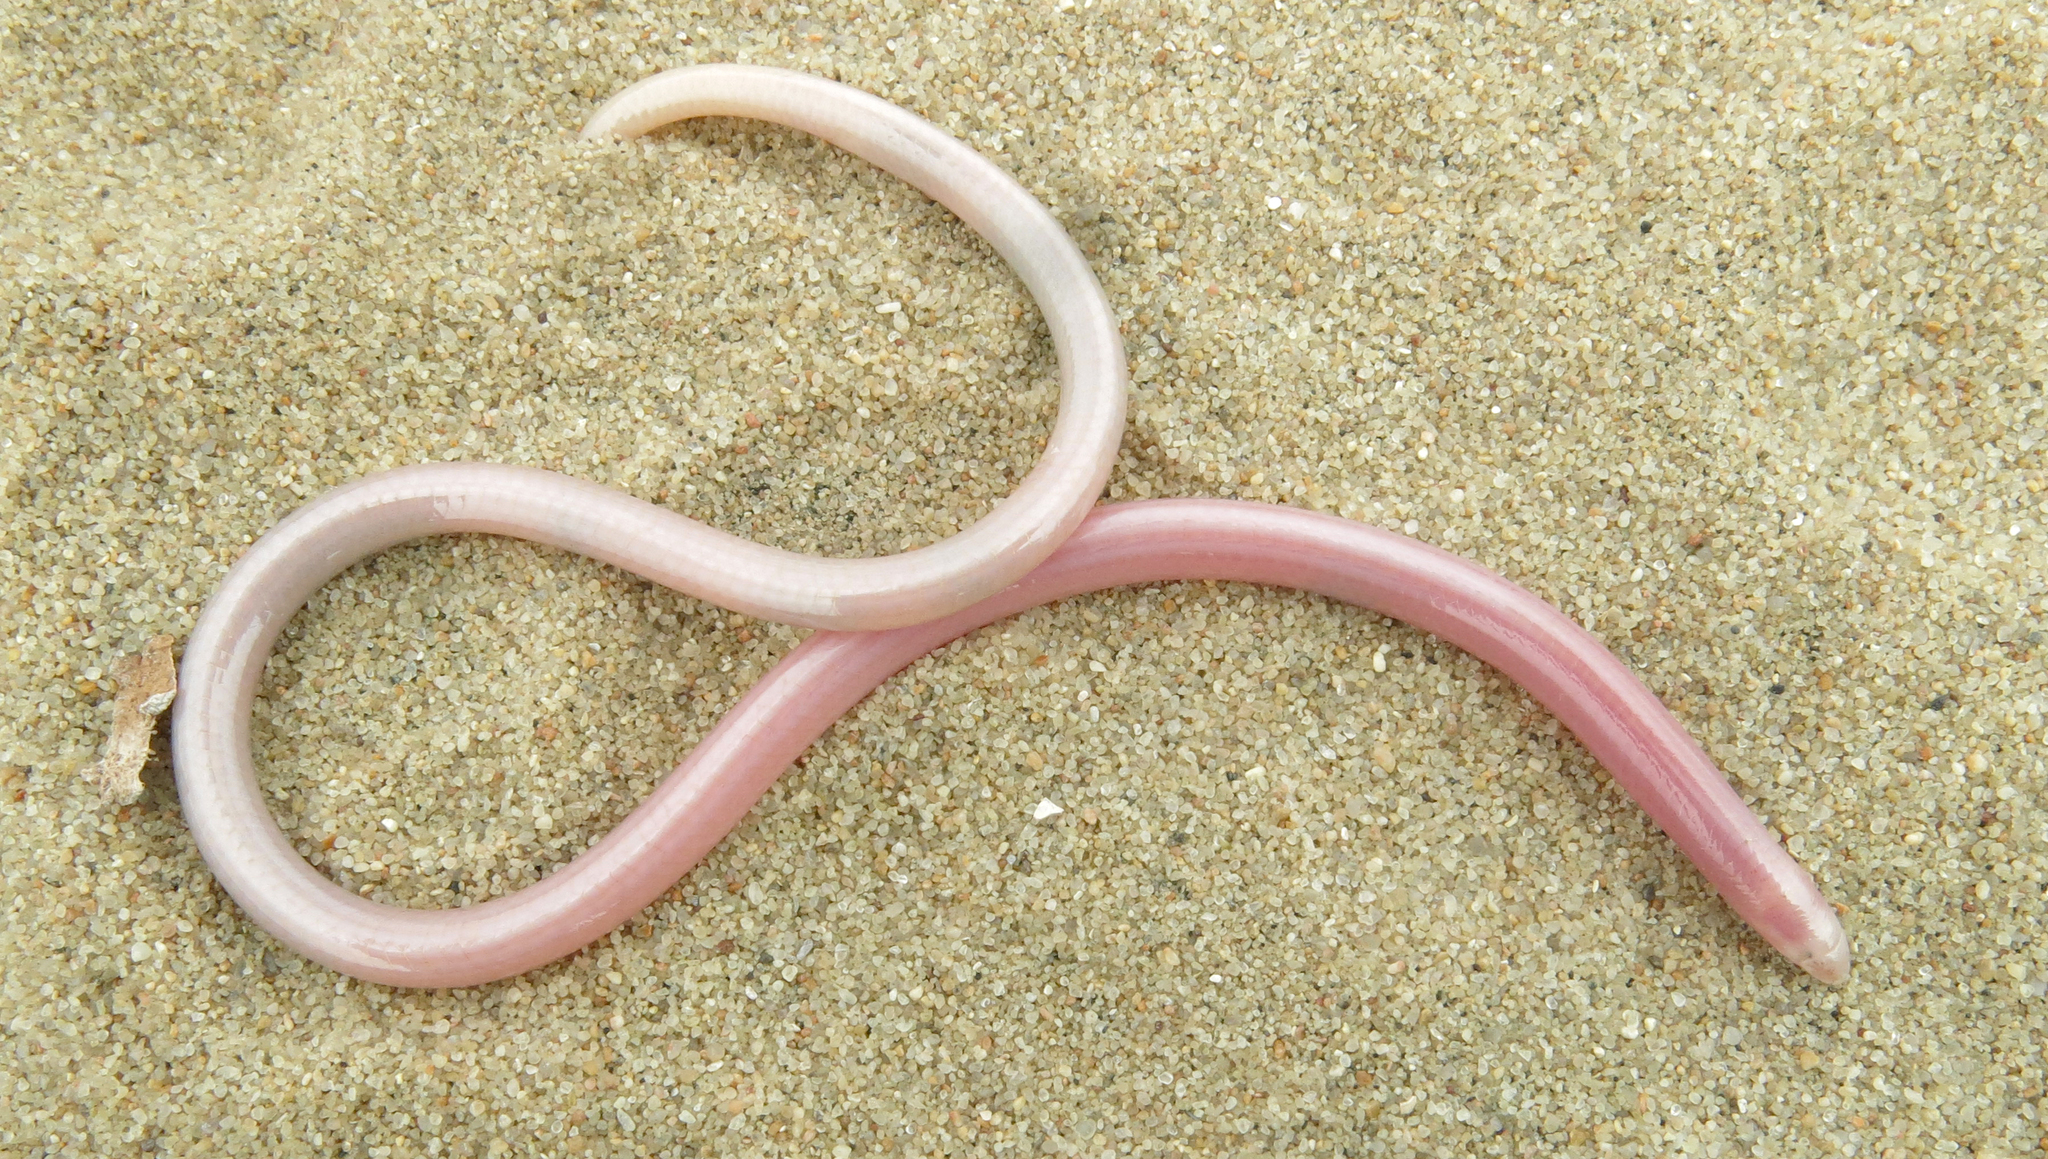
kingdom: Animalia
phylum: Chordata
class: Squamata
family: Scincidae
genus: Typhlosaurus
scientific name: Typhlosaurus vermis
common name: Boulenger's legless skink
